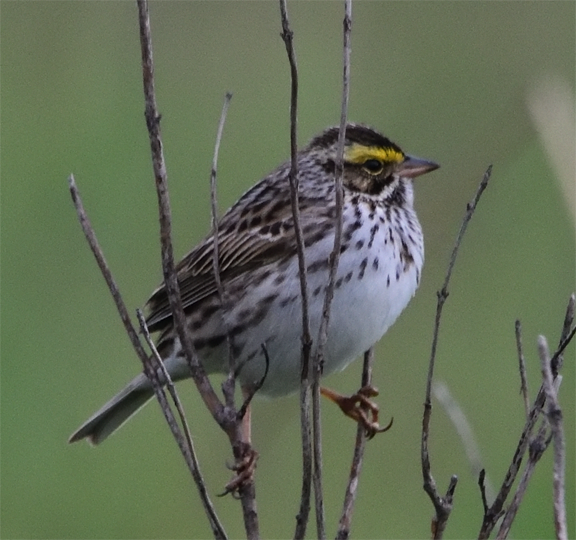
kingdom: Animalia
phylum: Chordata
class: Aves
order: Passeriformes
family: Passerellidae
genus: Passerculus
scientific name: Passerculus sandwichensis
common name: Savannah sparrow
